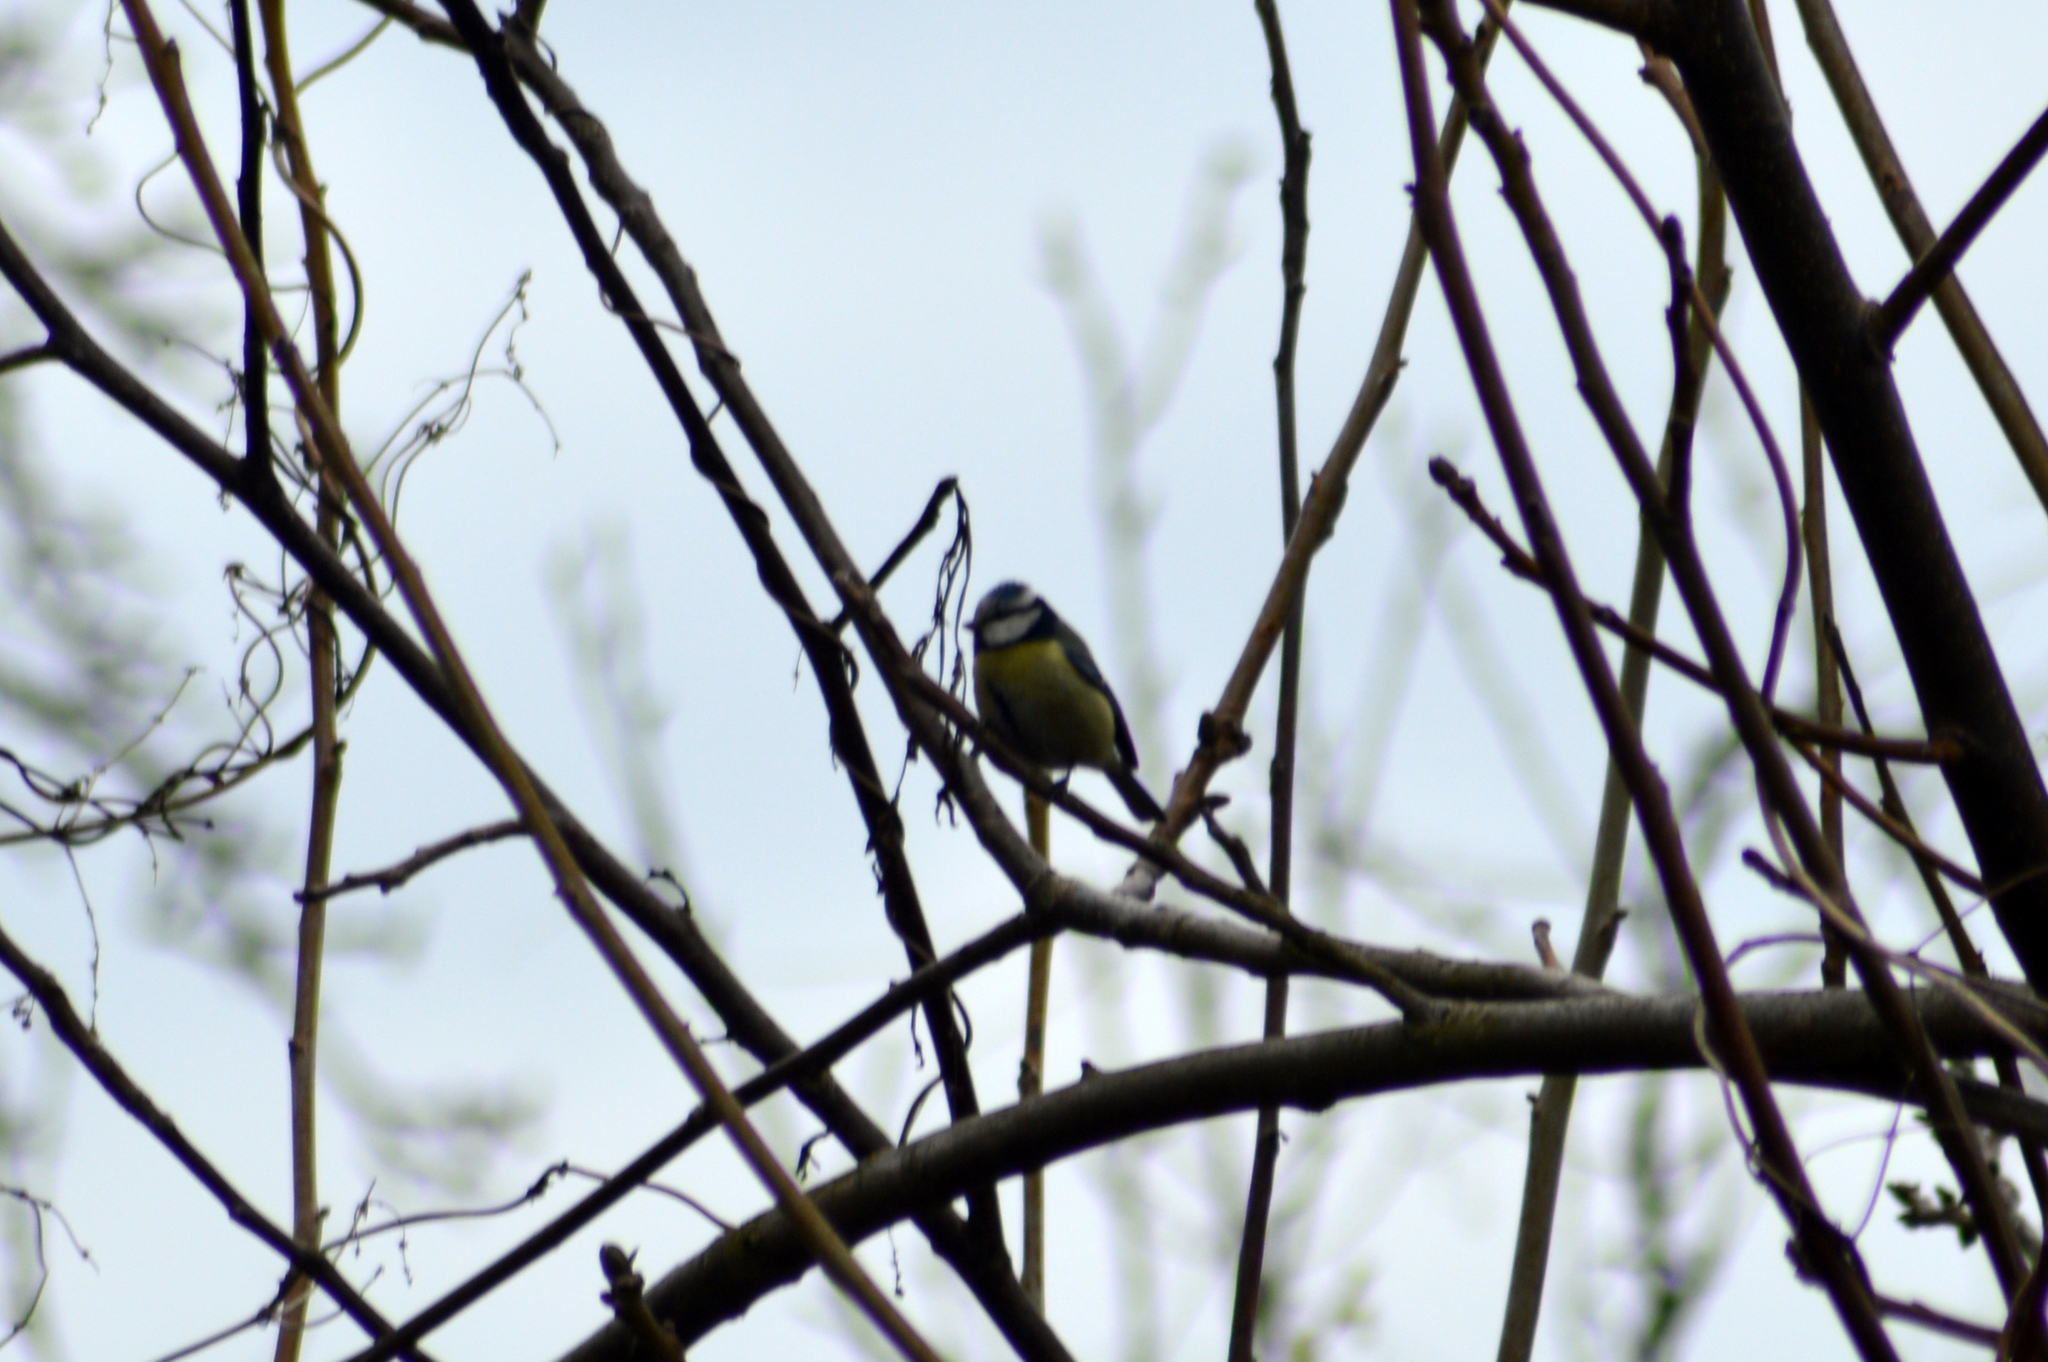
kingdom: Animalia
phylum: Chordata
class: Aves
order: Passeriformes
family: Paridae
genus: Cyanistes
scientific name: Cyanistes caeruleus
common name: Eurasian blue tit
